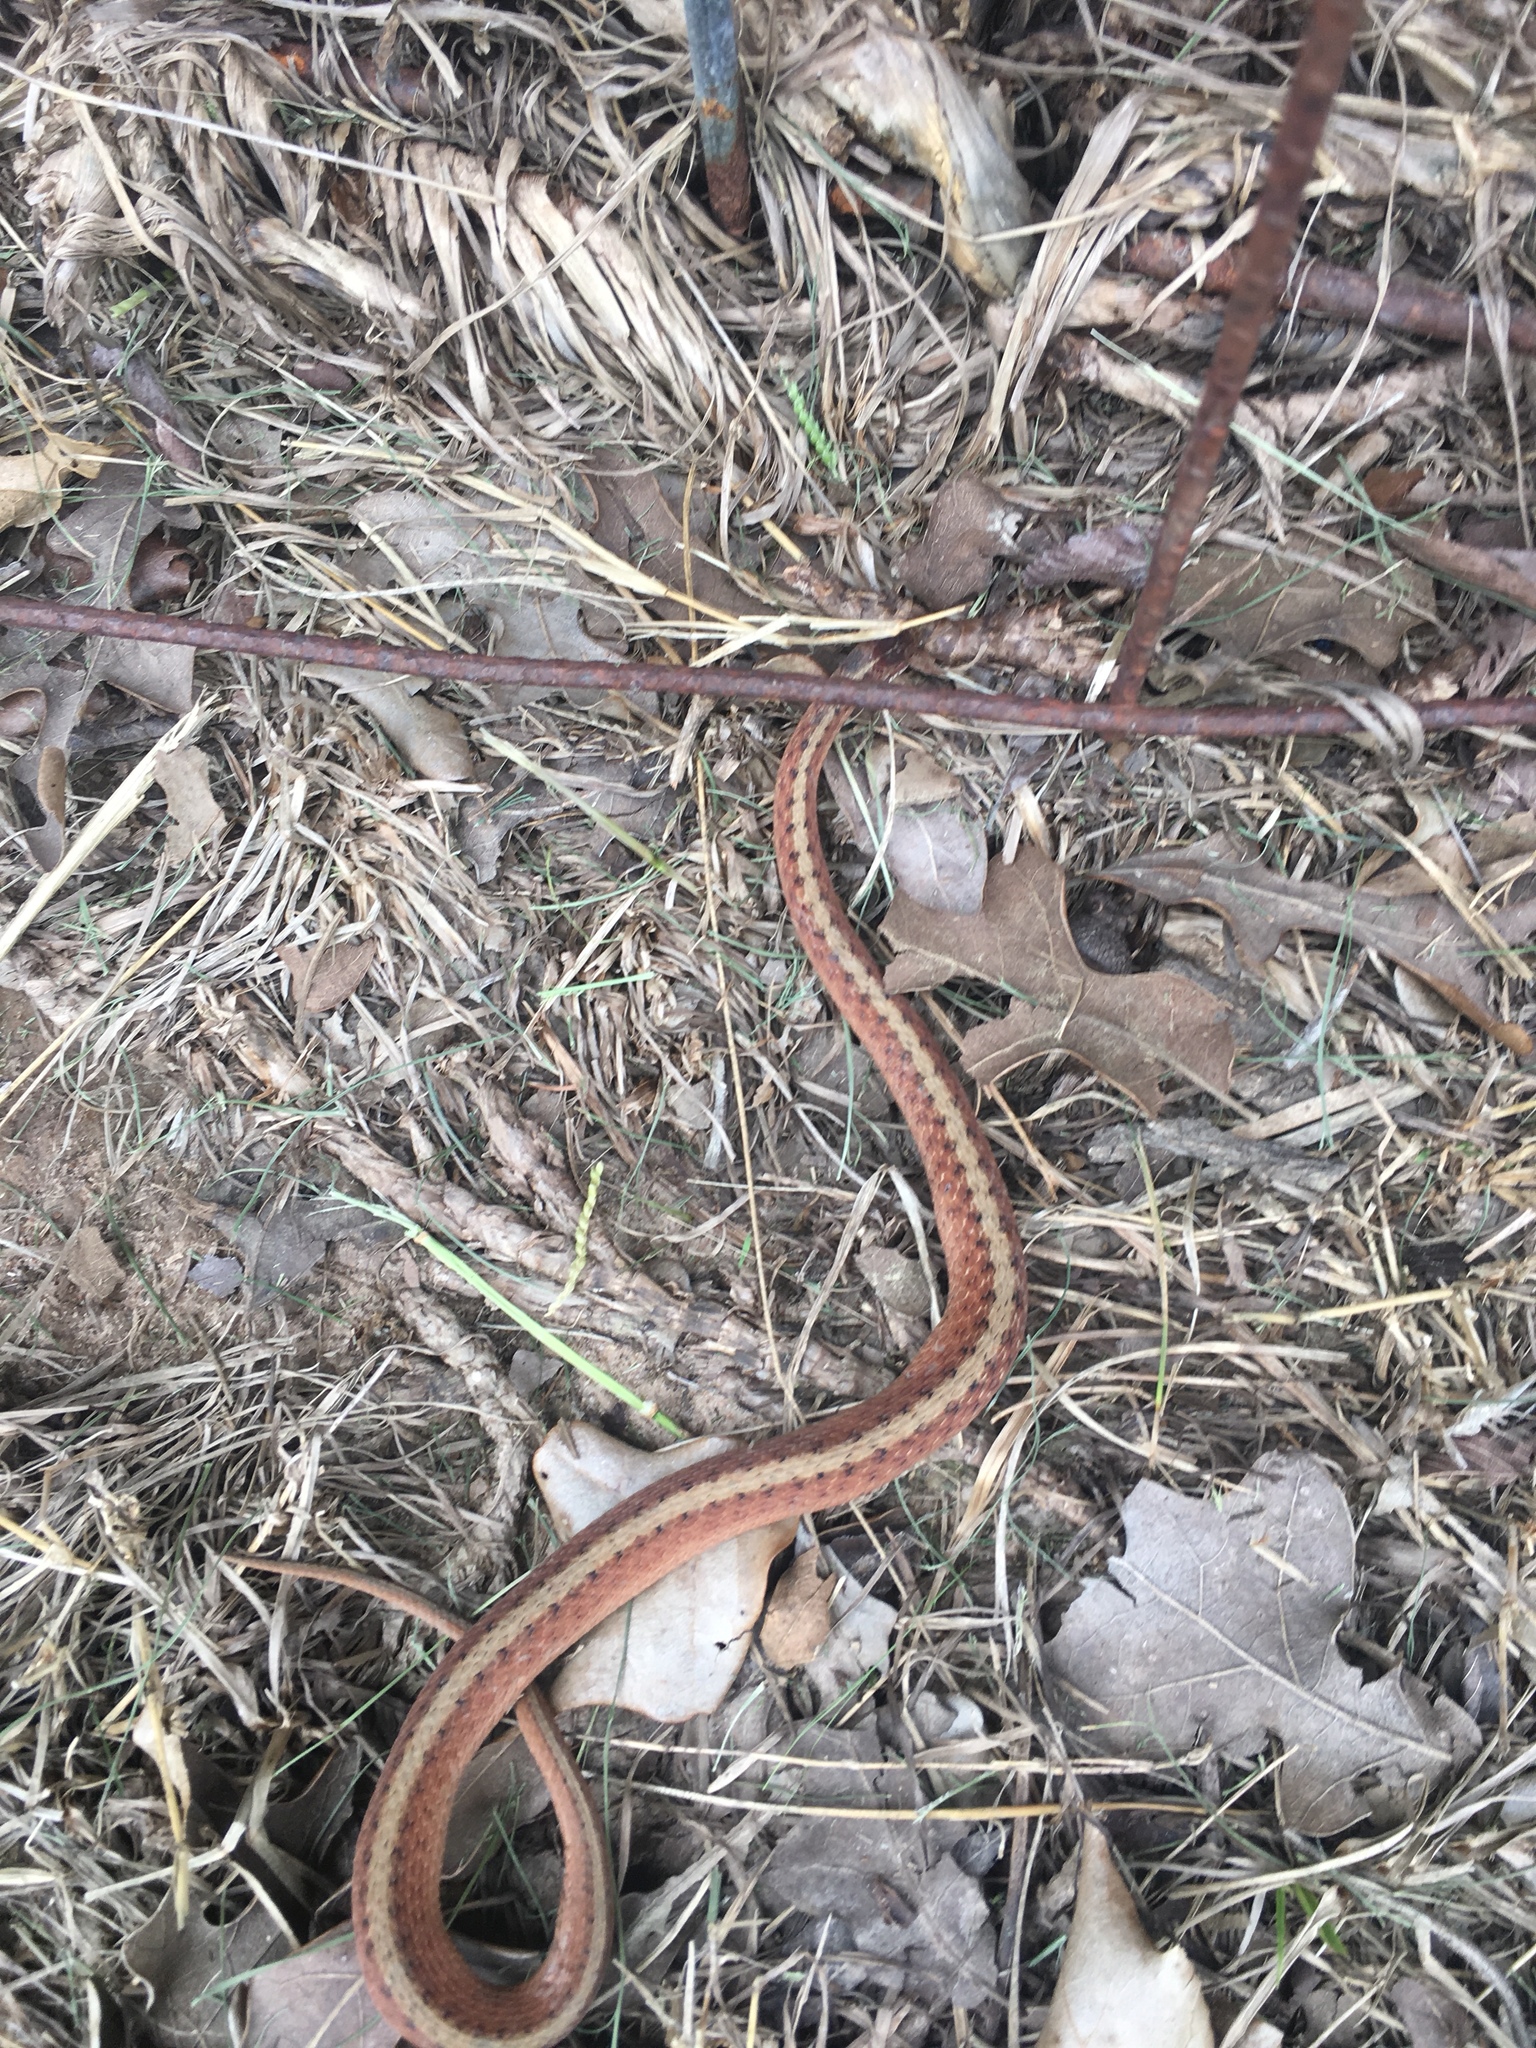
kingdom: Animalia
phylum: Chordata
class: Squamata
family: Colubridae
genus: Storeria
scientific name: Storeria dekayi
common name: (dekay’s) brown snake
